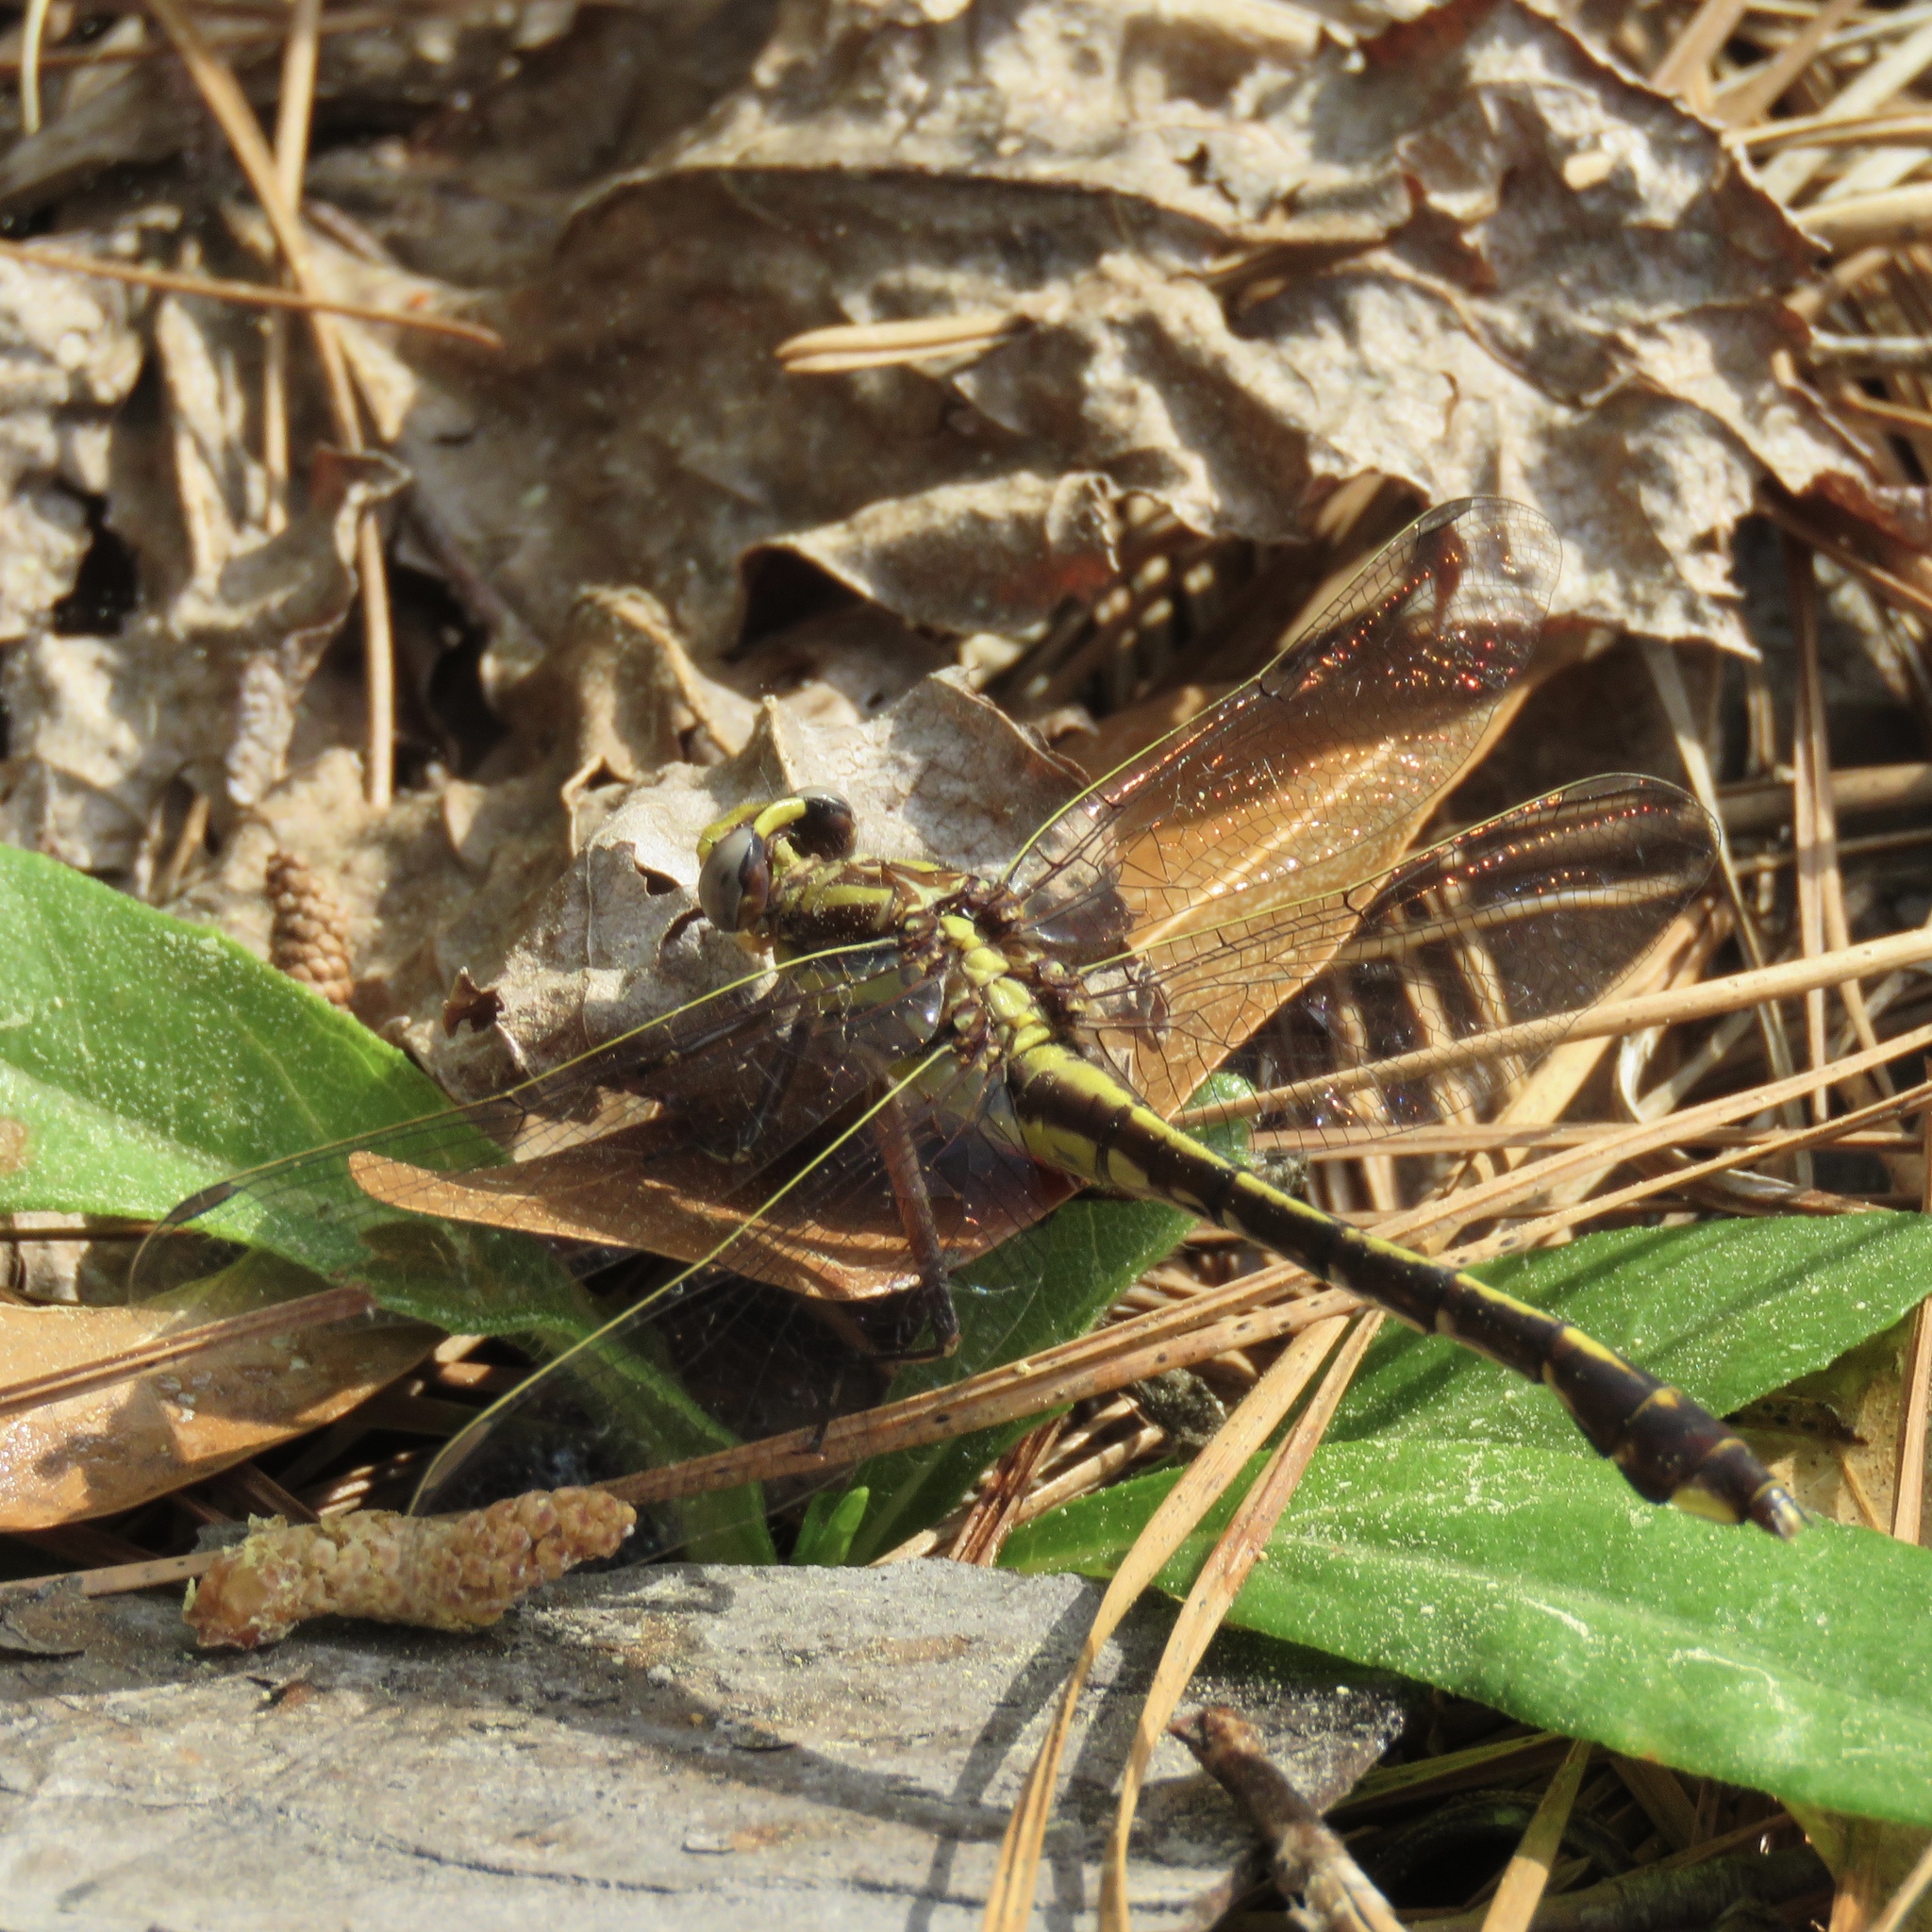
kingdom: Animalia
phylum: Arthropoda
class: Insecta
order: Odonata
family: Gomphidae
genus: Gomphurus
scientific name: Gomphurus hybridus
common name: Cocoa clubtail
